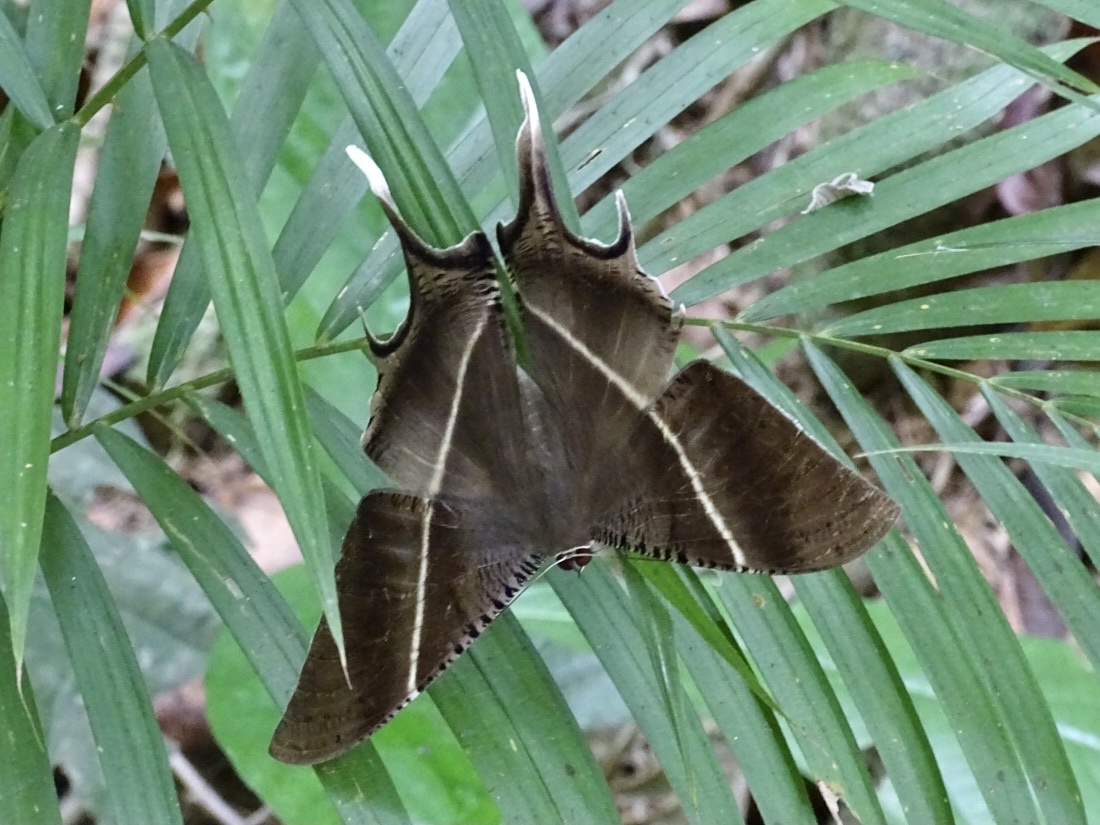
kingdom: Animalia
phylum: Arthropoda
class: Insecta
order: Lepidoptera
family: Uraniidae
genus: Lyssa
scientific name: Lyssa zampa
